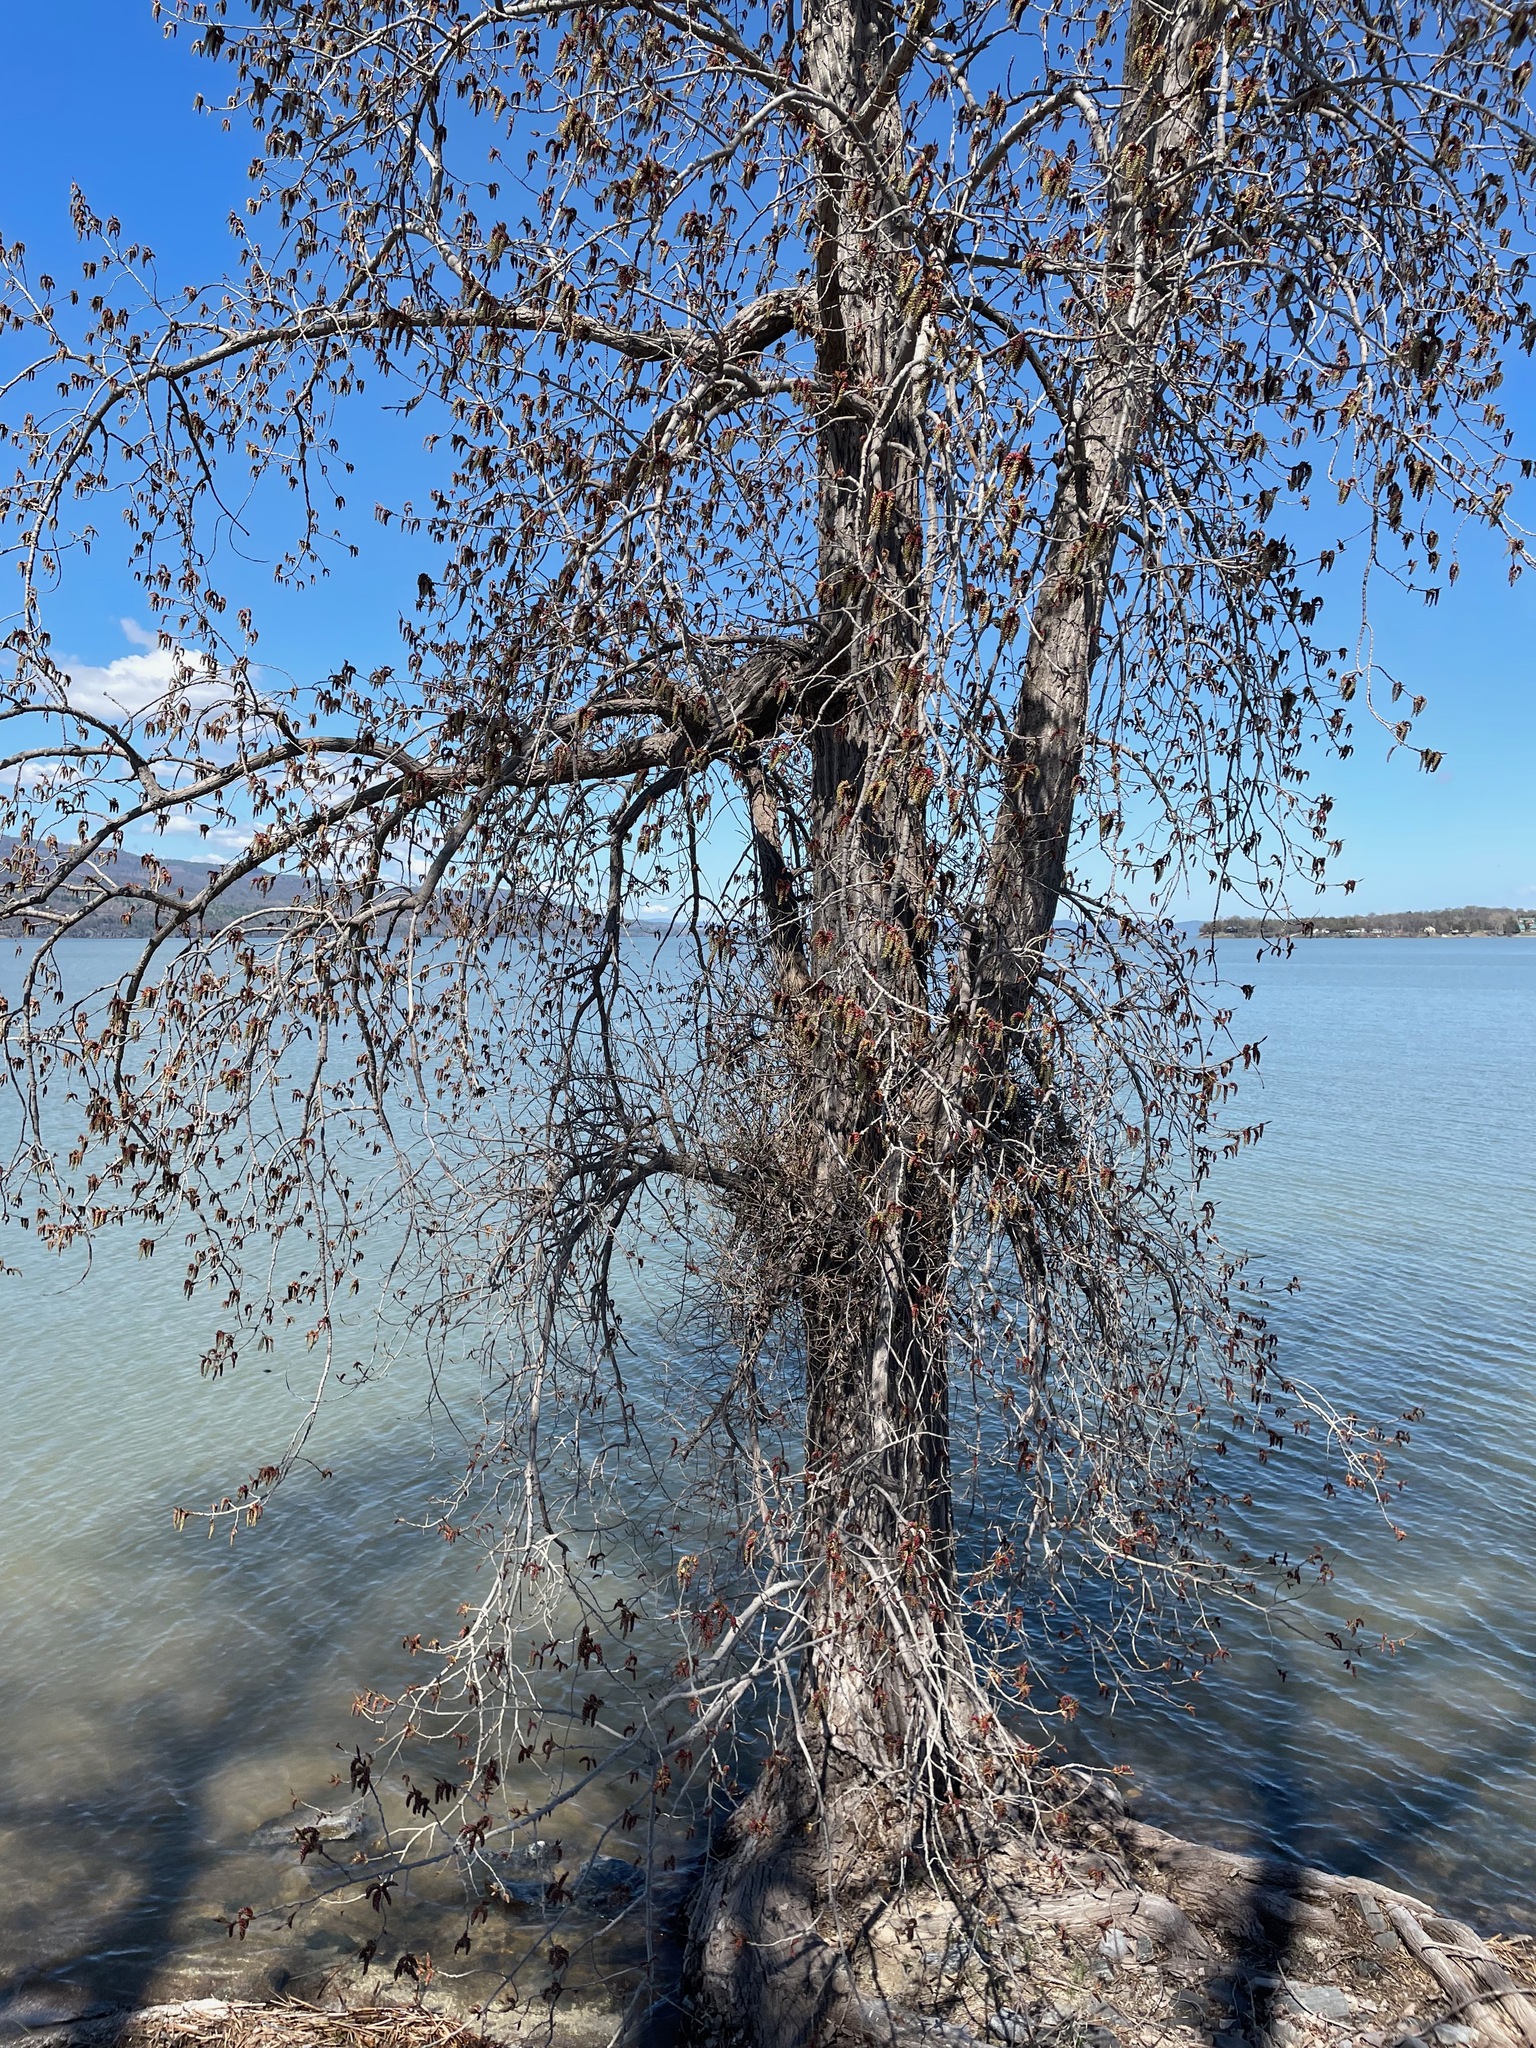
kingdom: Plantae
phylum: Tracheophyta
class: Magnoliopsida
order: Malpighiales
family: Salicaceae
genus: Populus
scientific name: Populus deltoides
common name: Eastern cottonwood
